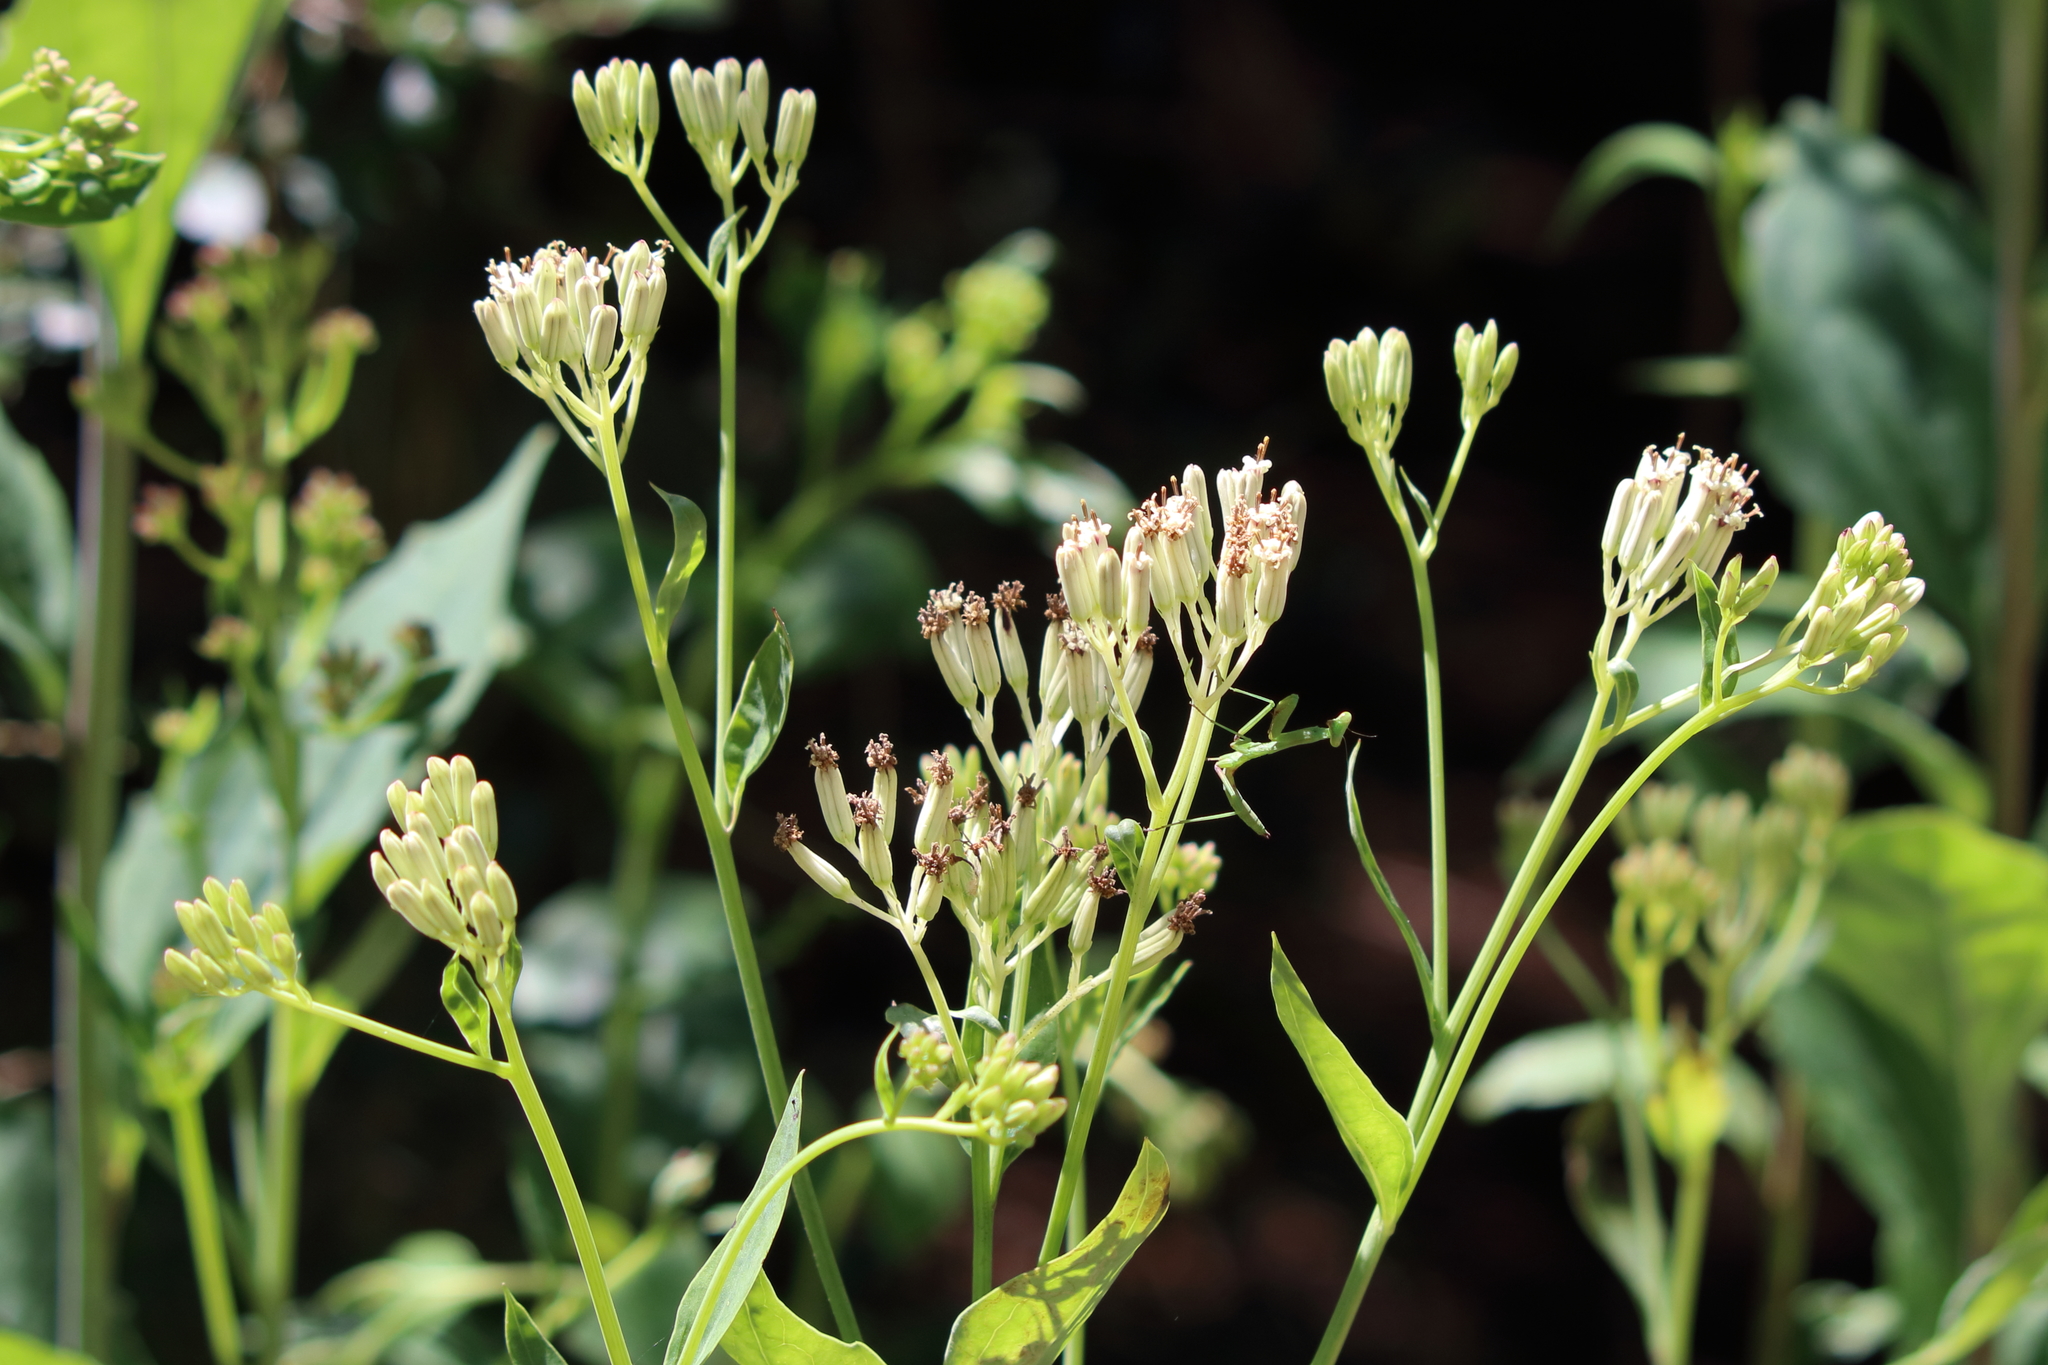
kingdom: Plantae
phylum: Tracheophyta
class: Magnoliopsida
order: Asterales
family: Asteraceae
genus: Arnoglossum
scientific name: Arnoglossum ovatum
